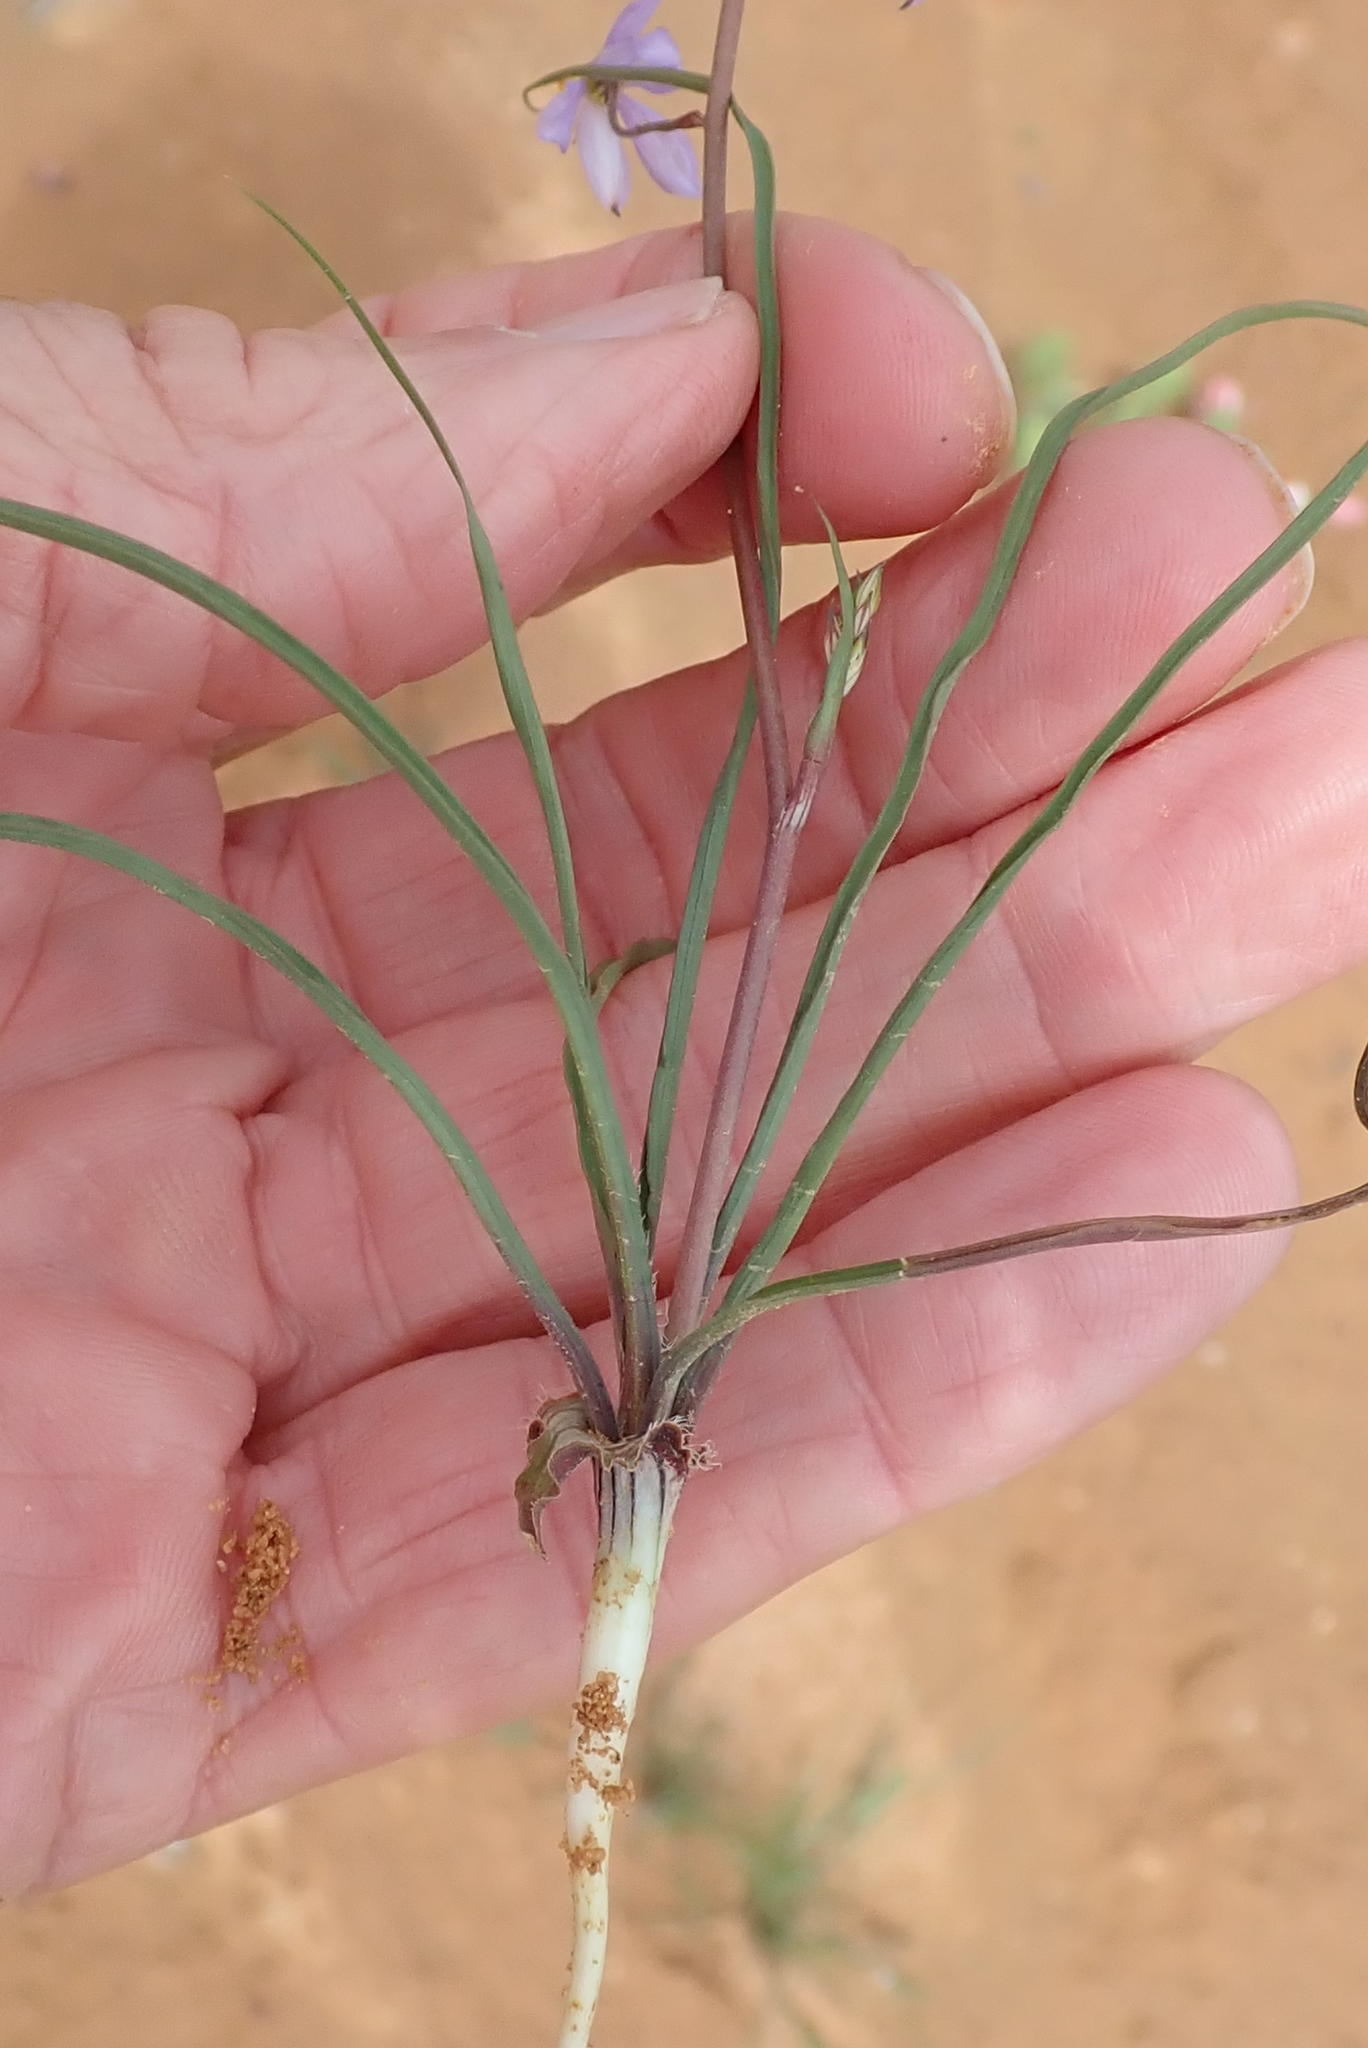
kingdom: Plantae
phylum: Tracheophyta
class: Liliopsida
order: Asparagales
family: Tecophilaeaceae
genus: Cyanella
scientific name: Cyanella hyacinthoides
